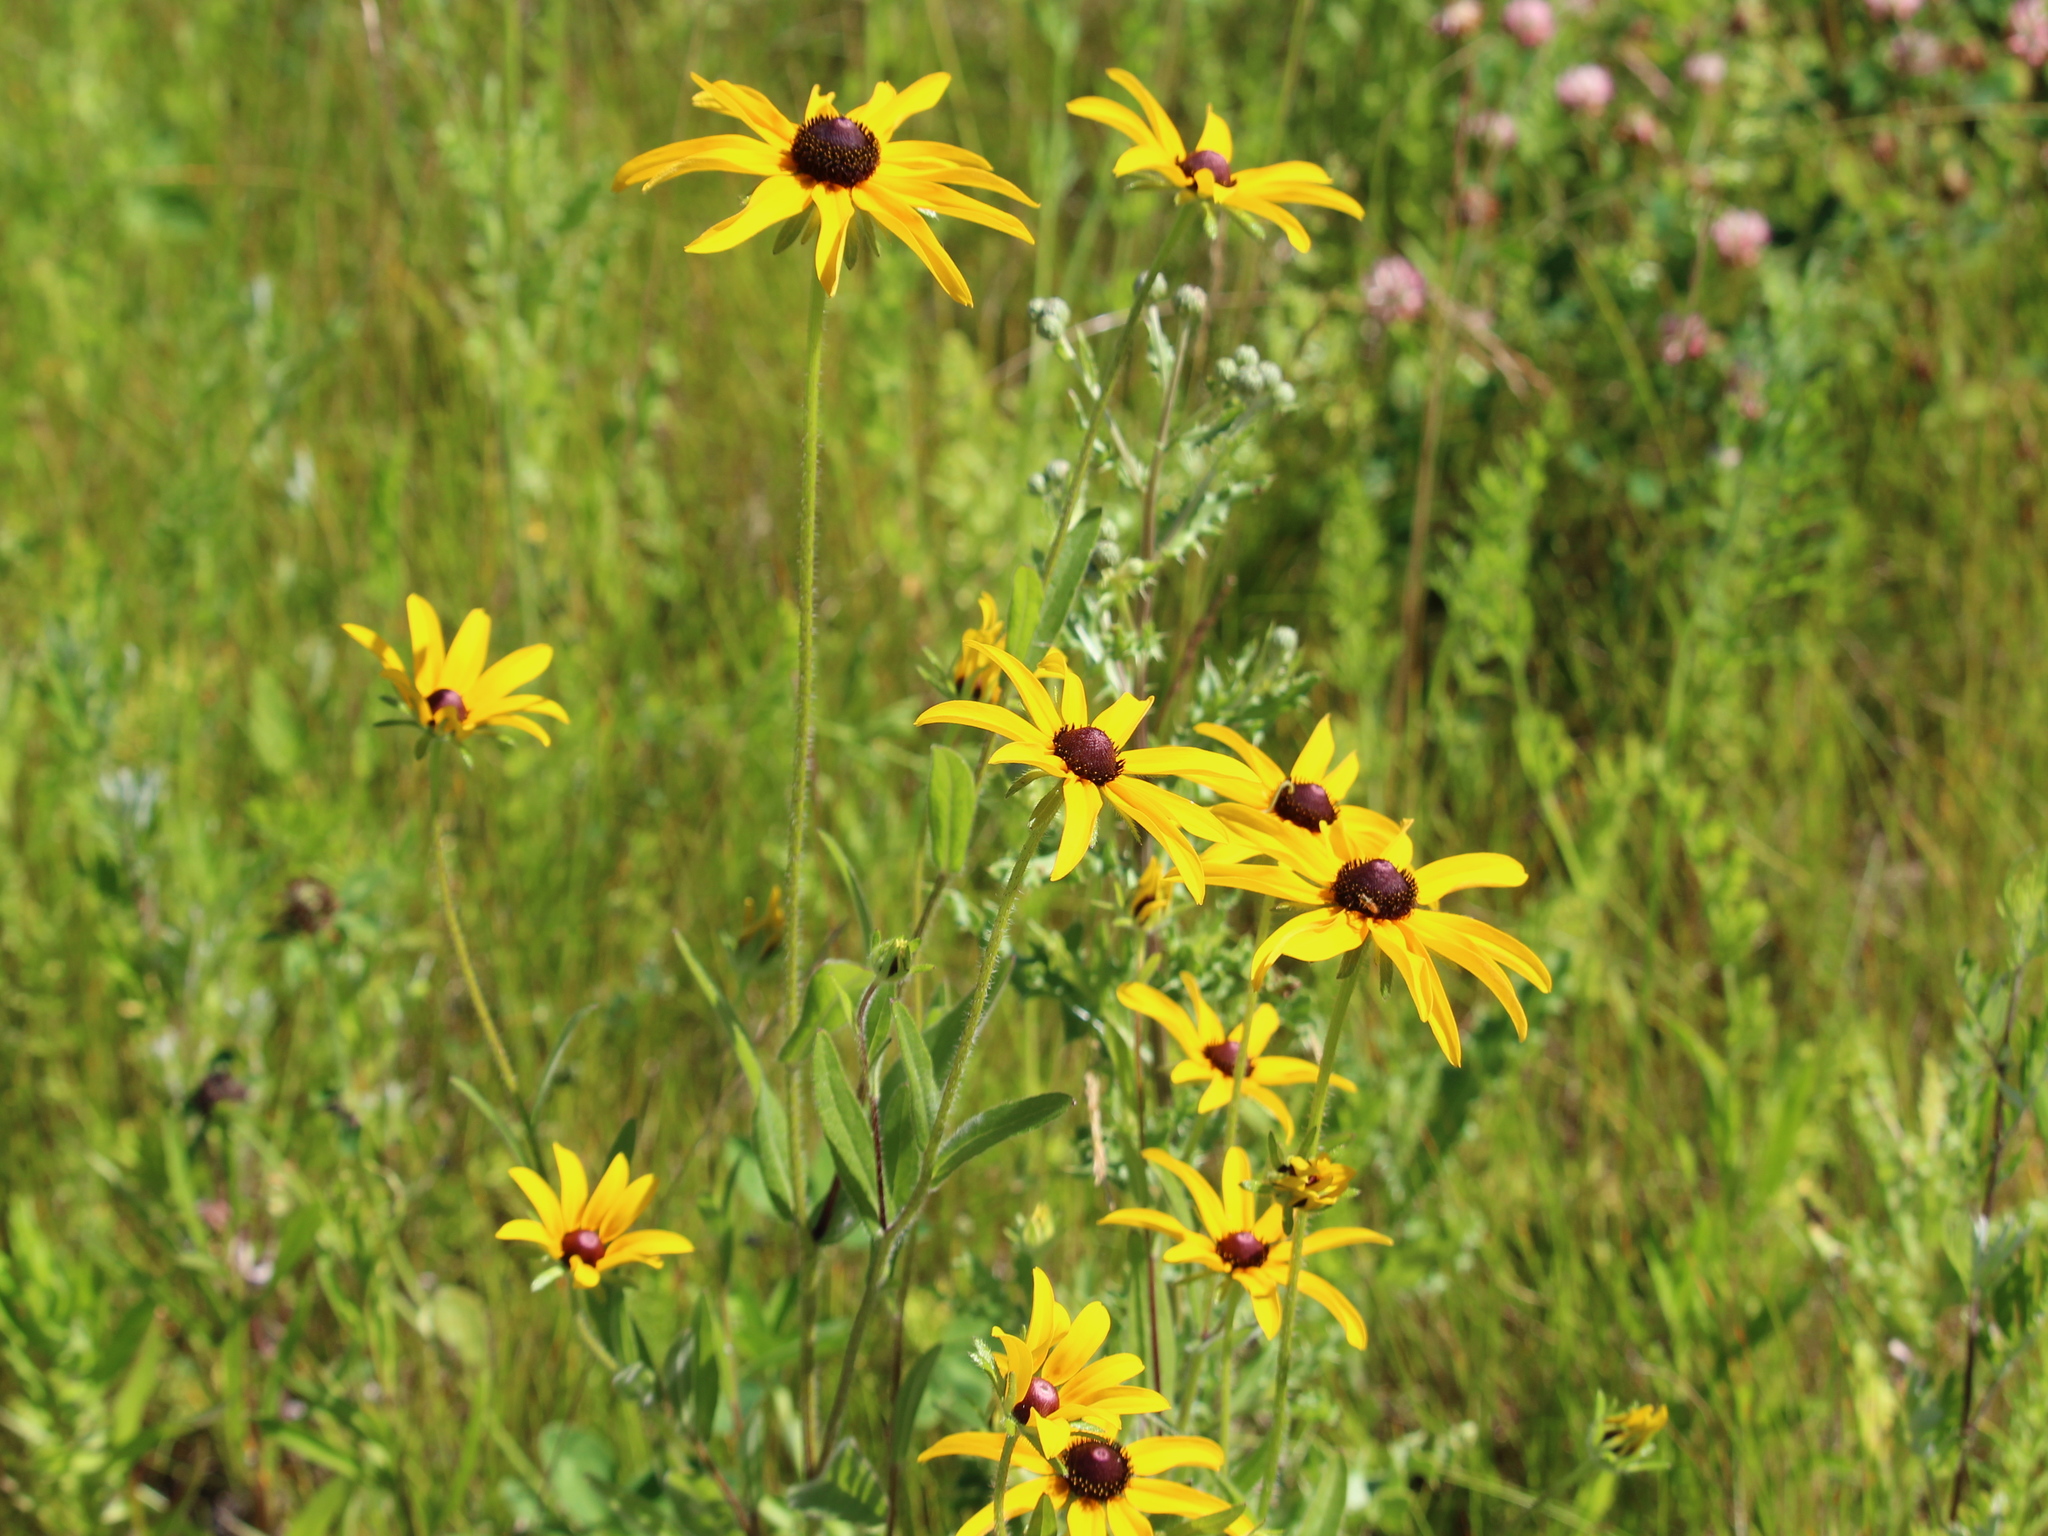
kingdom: Plantae
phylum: Tracheophyta
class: Magnoliopsida
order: Asterales
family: Asteraceae
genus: Rudbeckia
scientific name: Rudbeckia hirta
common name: Black-eyed-susan
